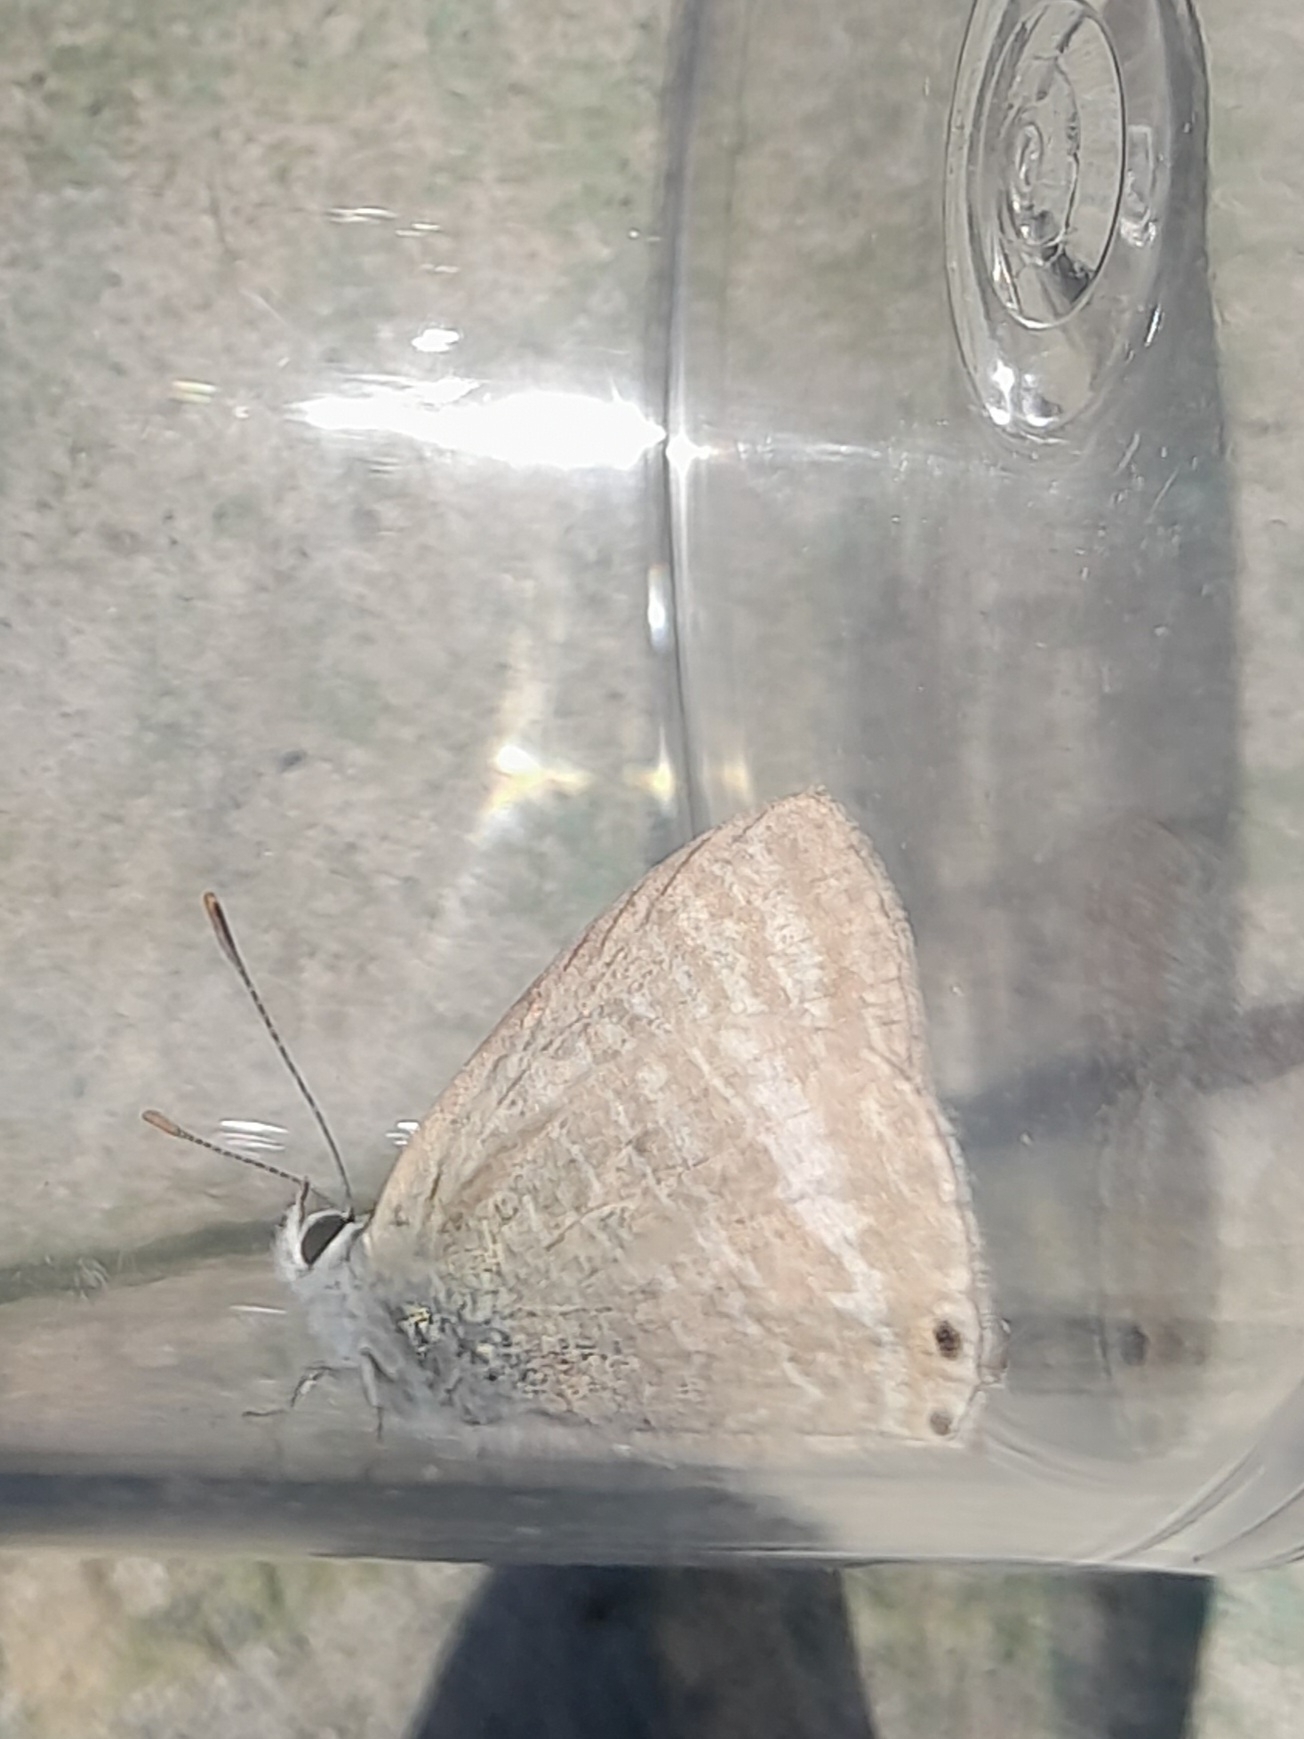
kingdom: Animalia
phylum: Arthropoda
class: Insecta
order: Lepidoptera
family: Lycaenidae
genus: Lampides
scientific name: Lampides boeticus
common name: Long-tailed blue
